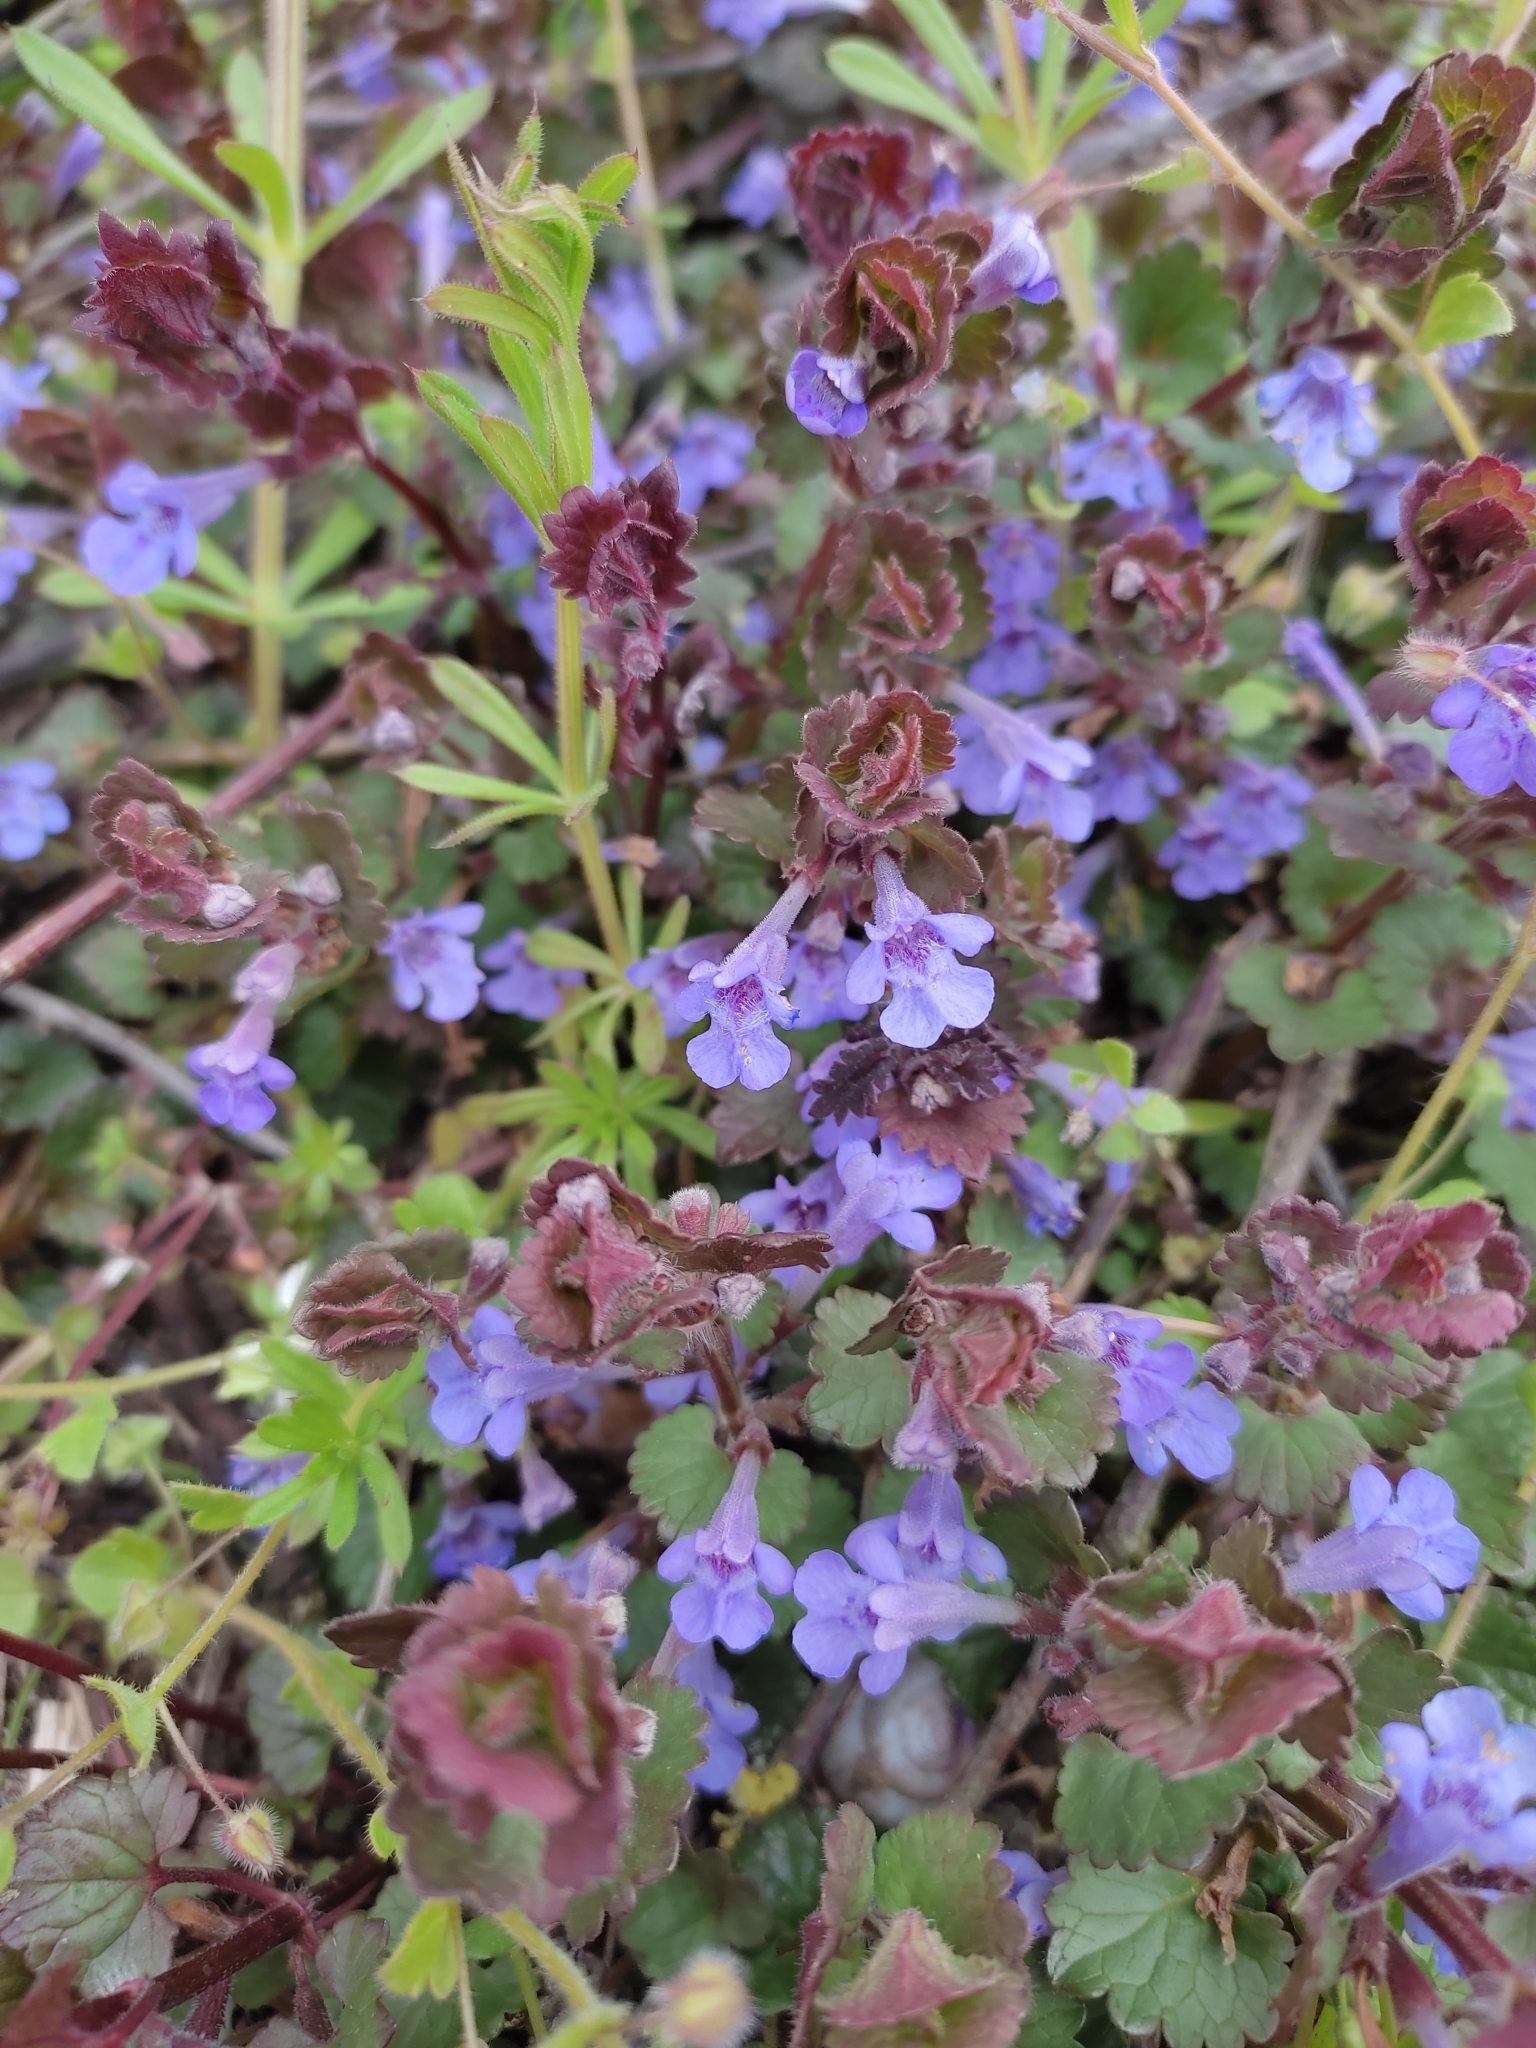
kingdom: Plantae
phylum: Tracheophyta
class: Magnoliopsida
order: Lamiales
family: Lamiaceae
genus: Glechoma
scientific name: Glechoma hederacea
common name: Ground ivy
